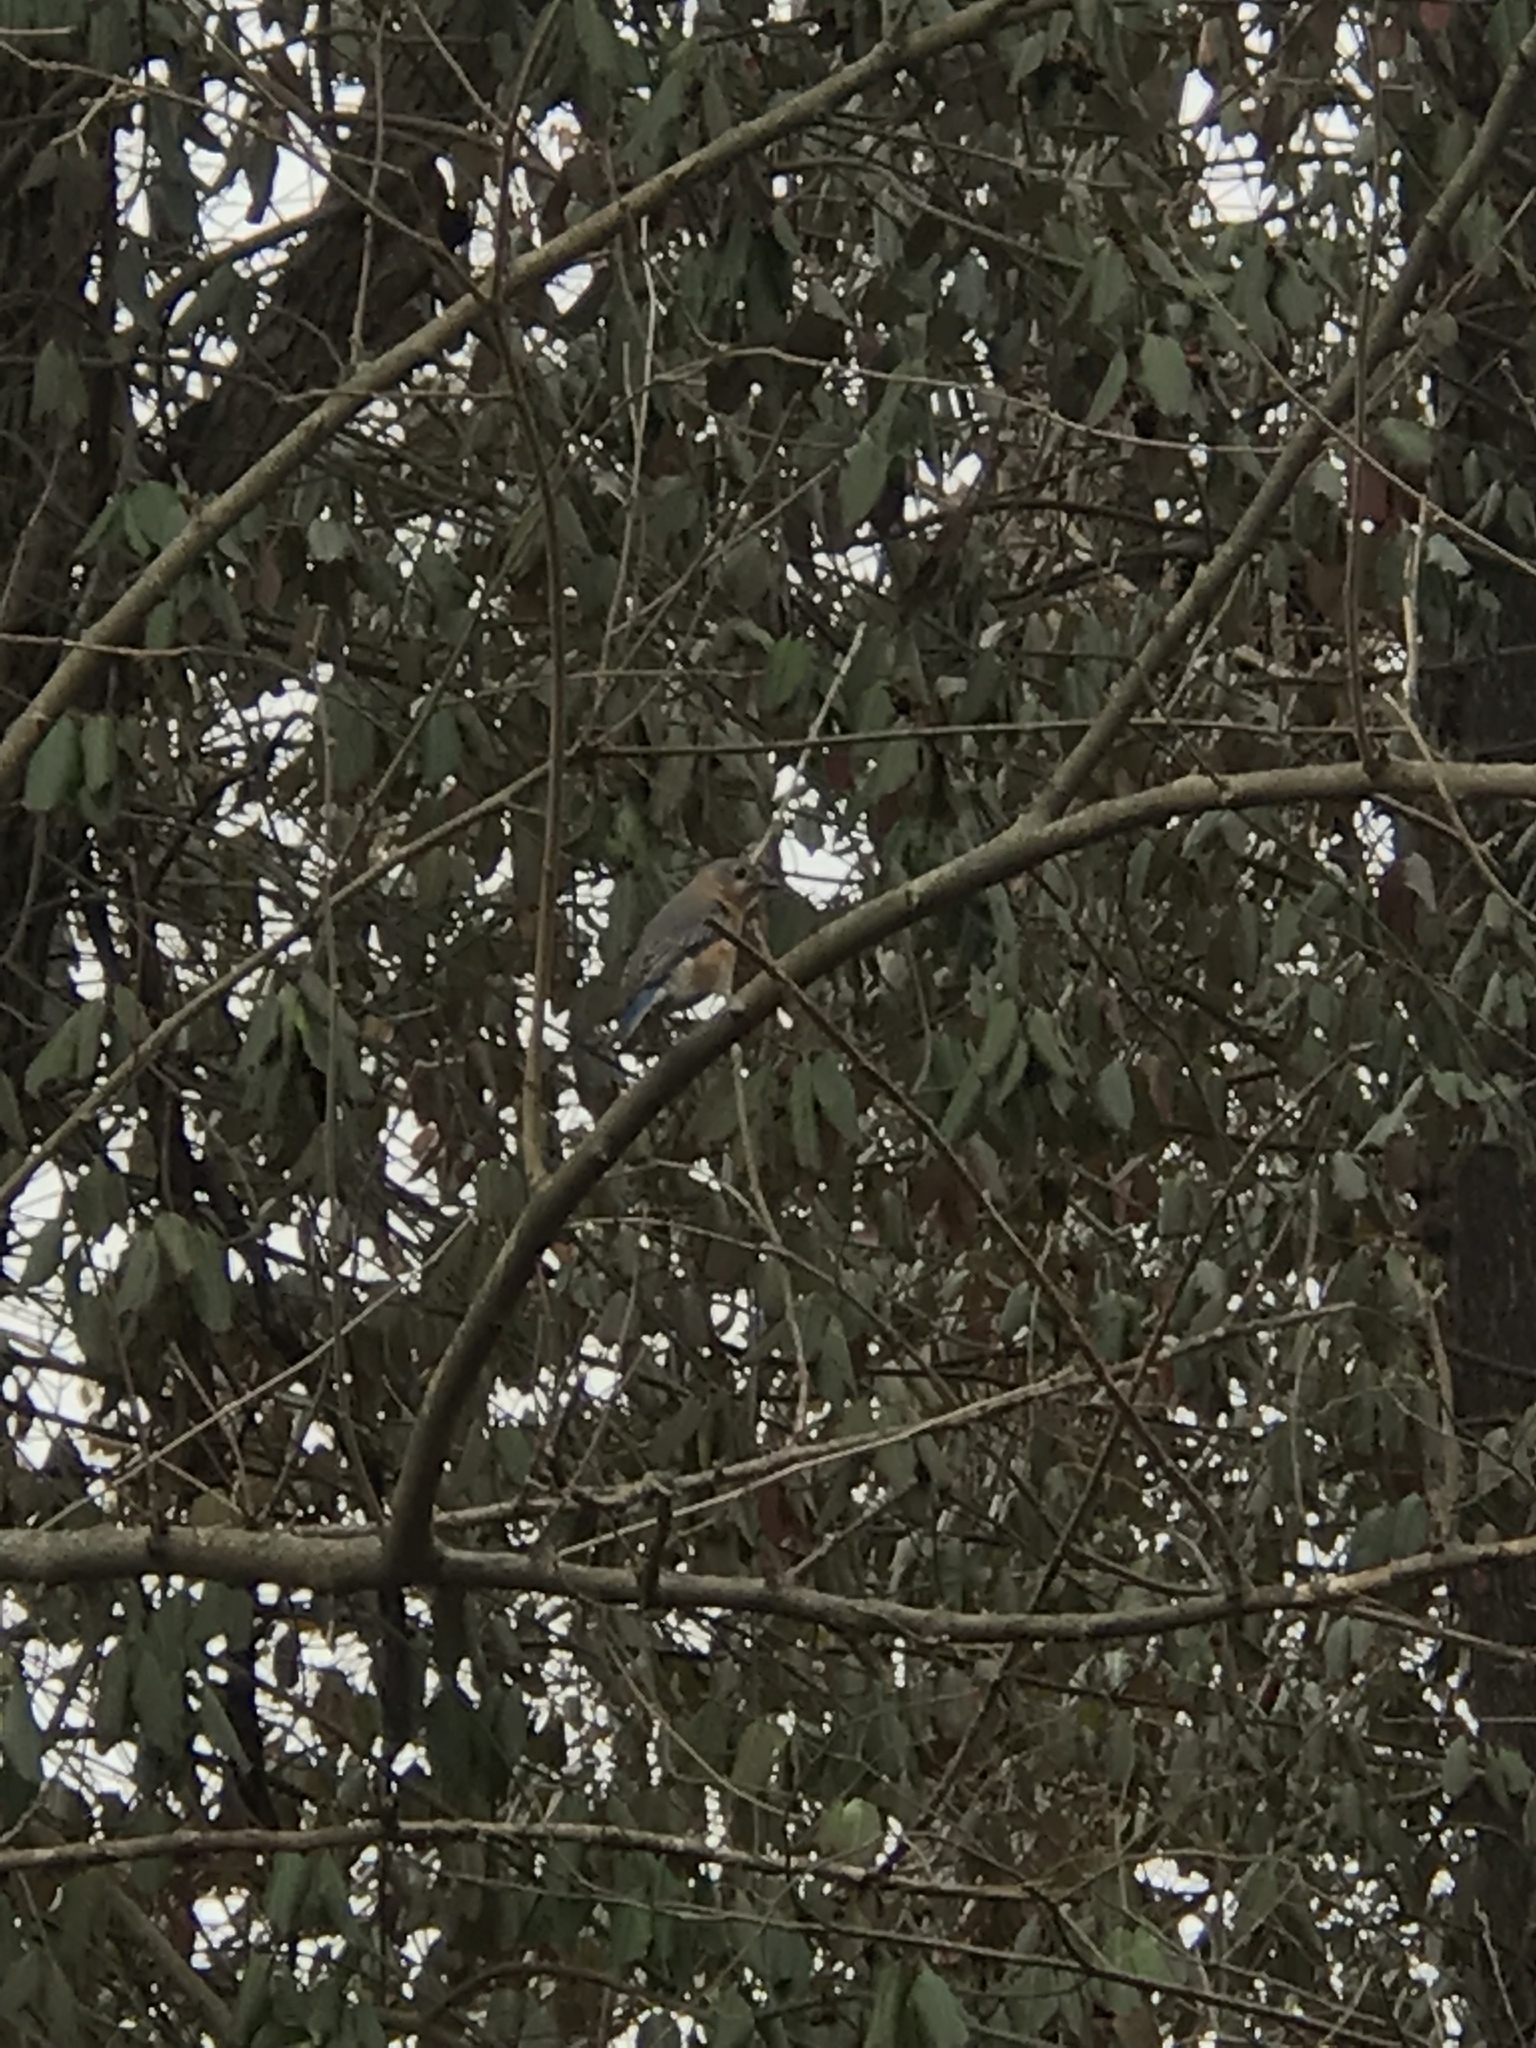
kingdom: Animalia
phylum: Chordata
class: Aves
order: Passeriformes
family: Turdidae
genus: Sialia
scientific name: Sialia sialis
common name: Eastern bluebird
